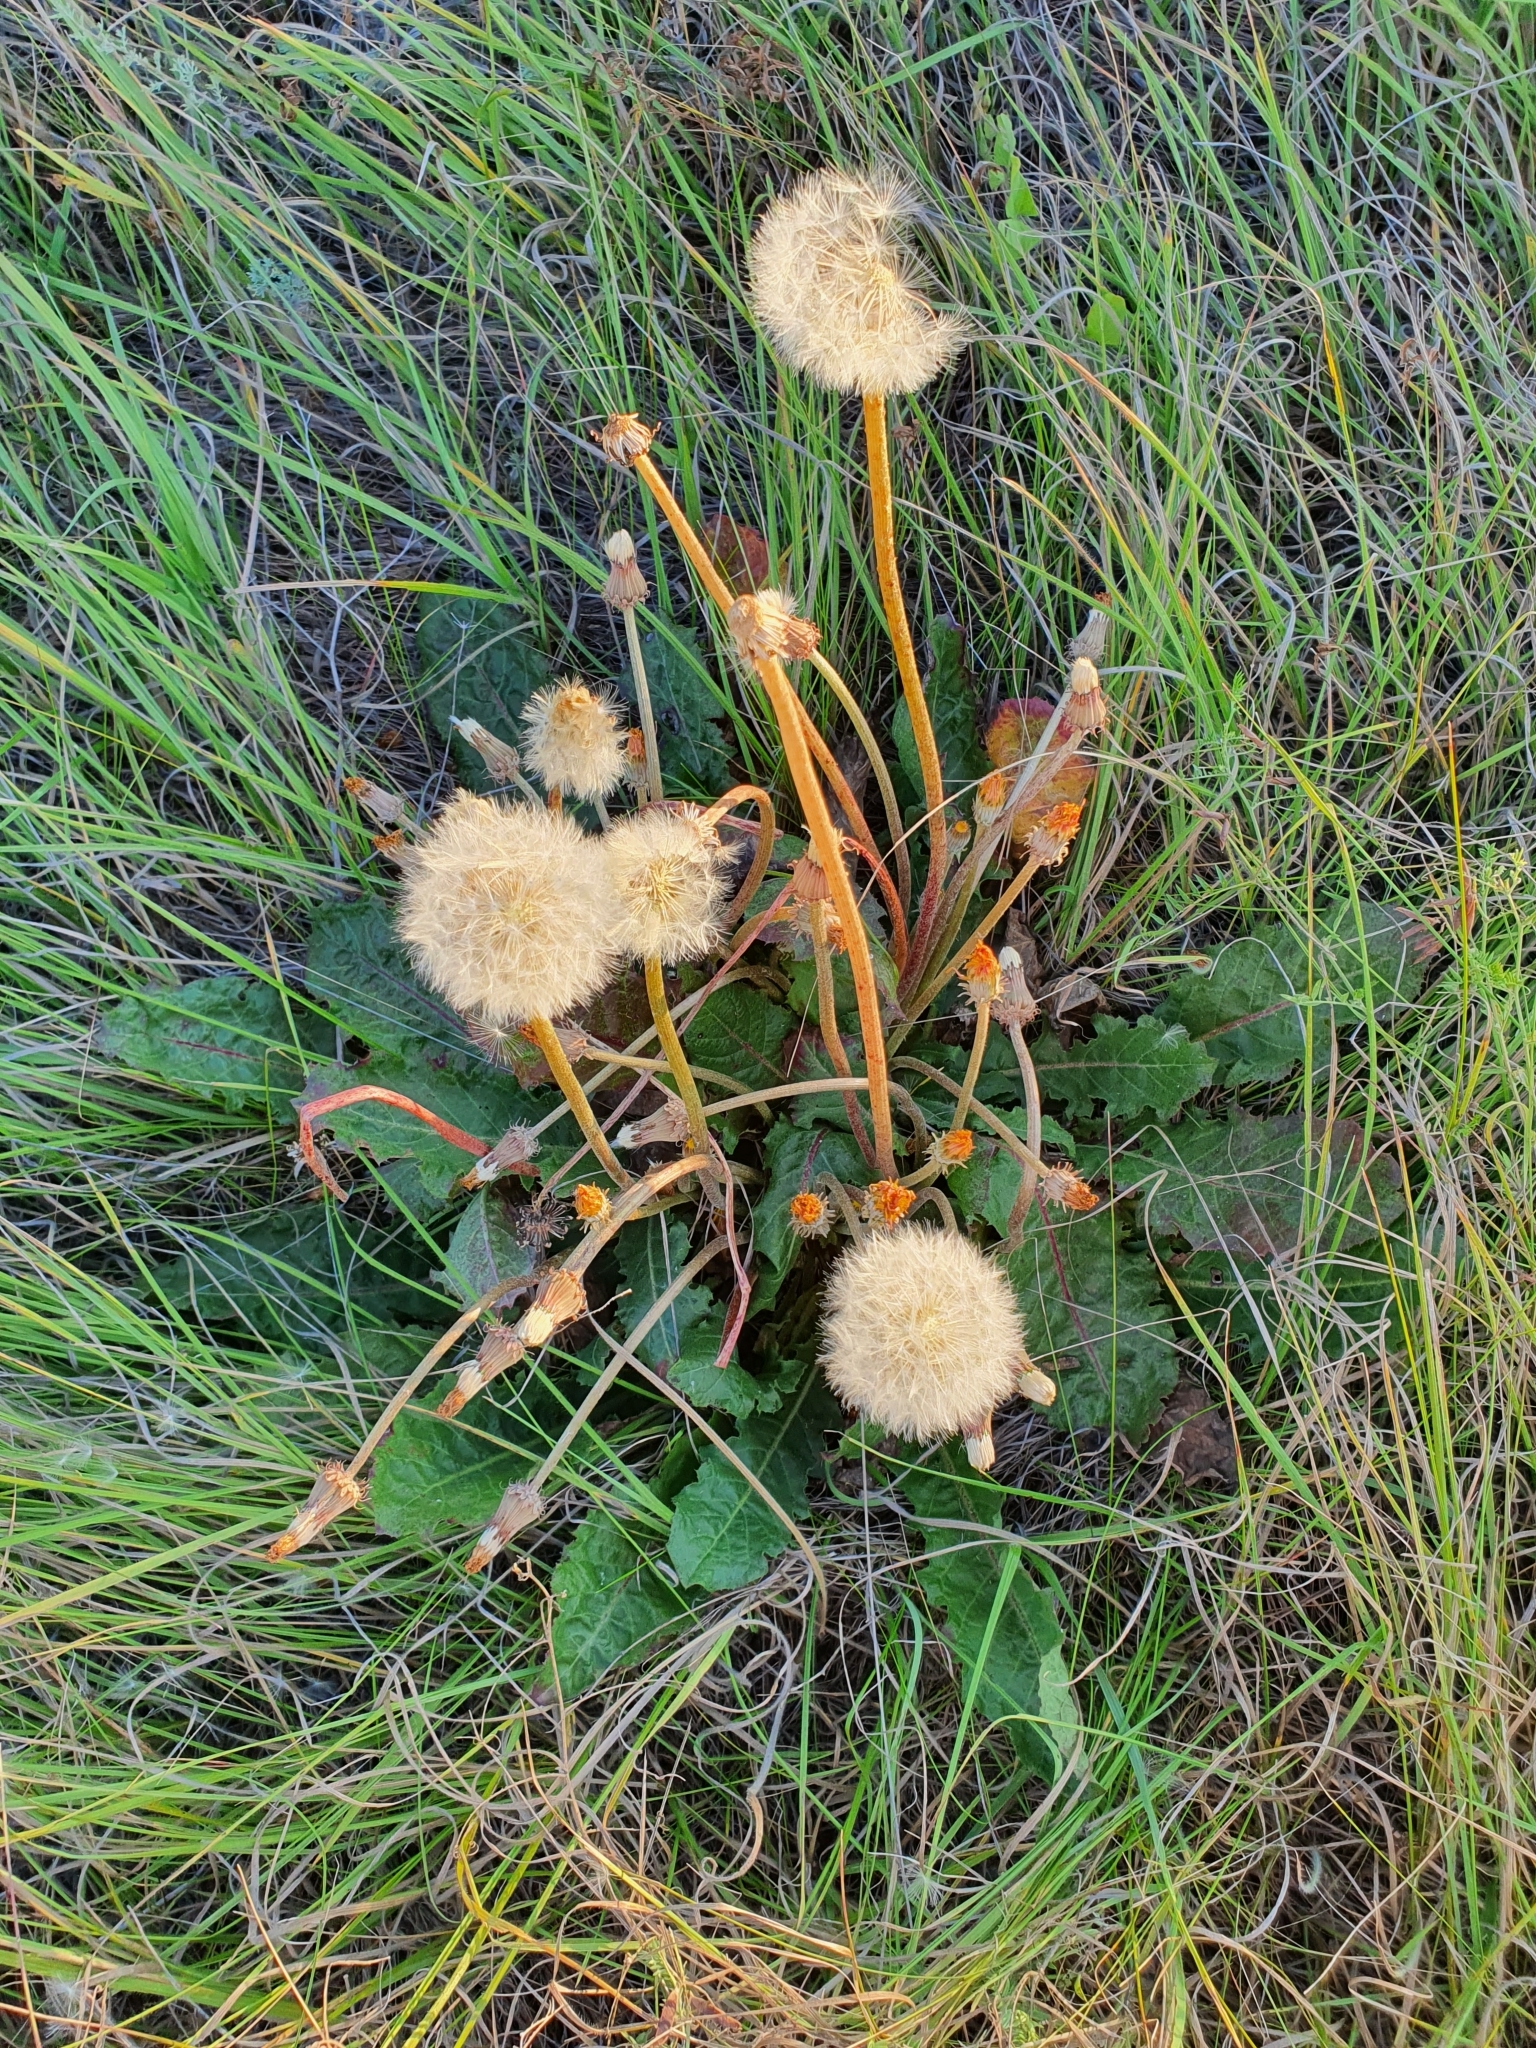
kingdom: Plantae
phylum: Tracheophyta
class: Magnoliopsida
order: Asterales
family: Asteraceae
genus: Taraxacum
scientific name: Taraxacum serotinum
